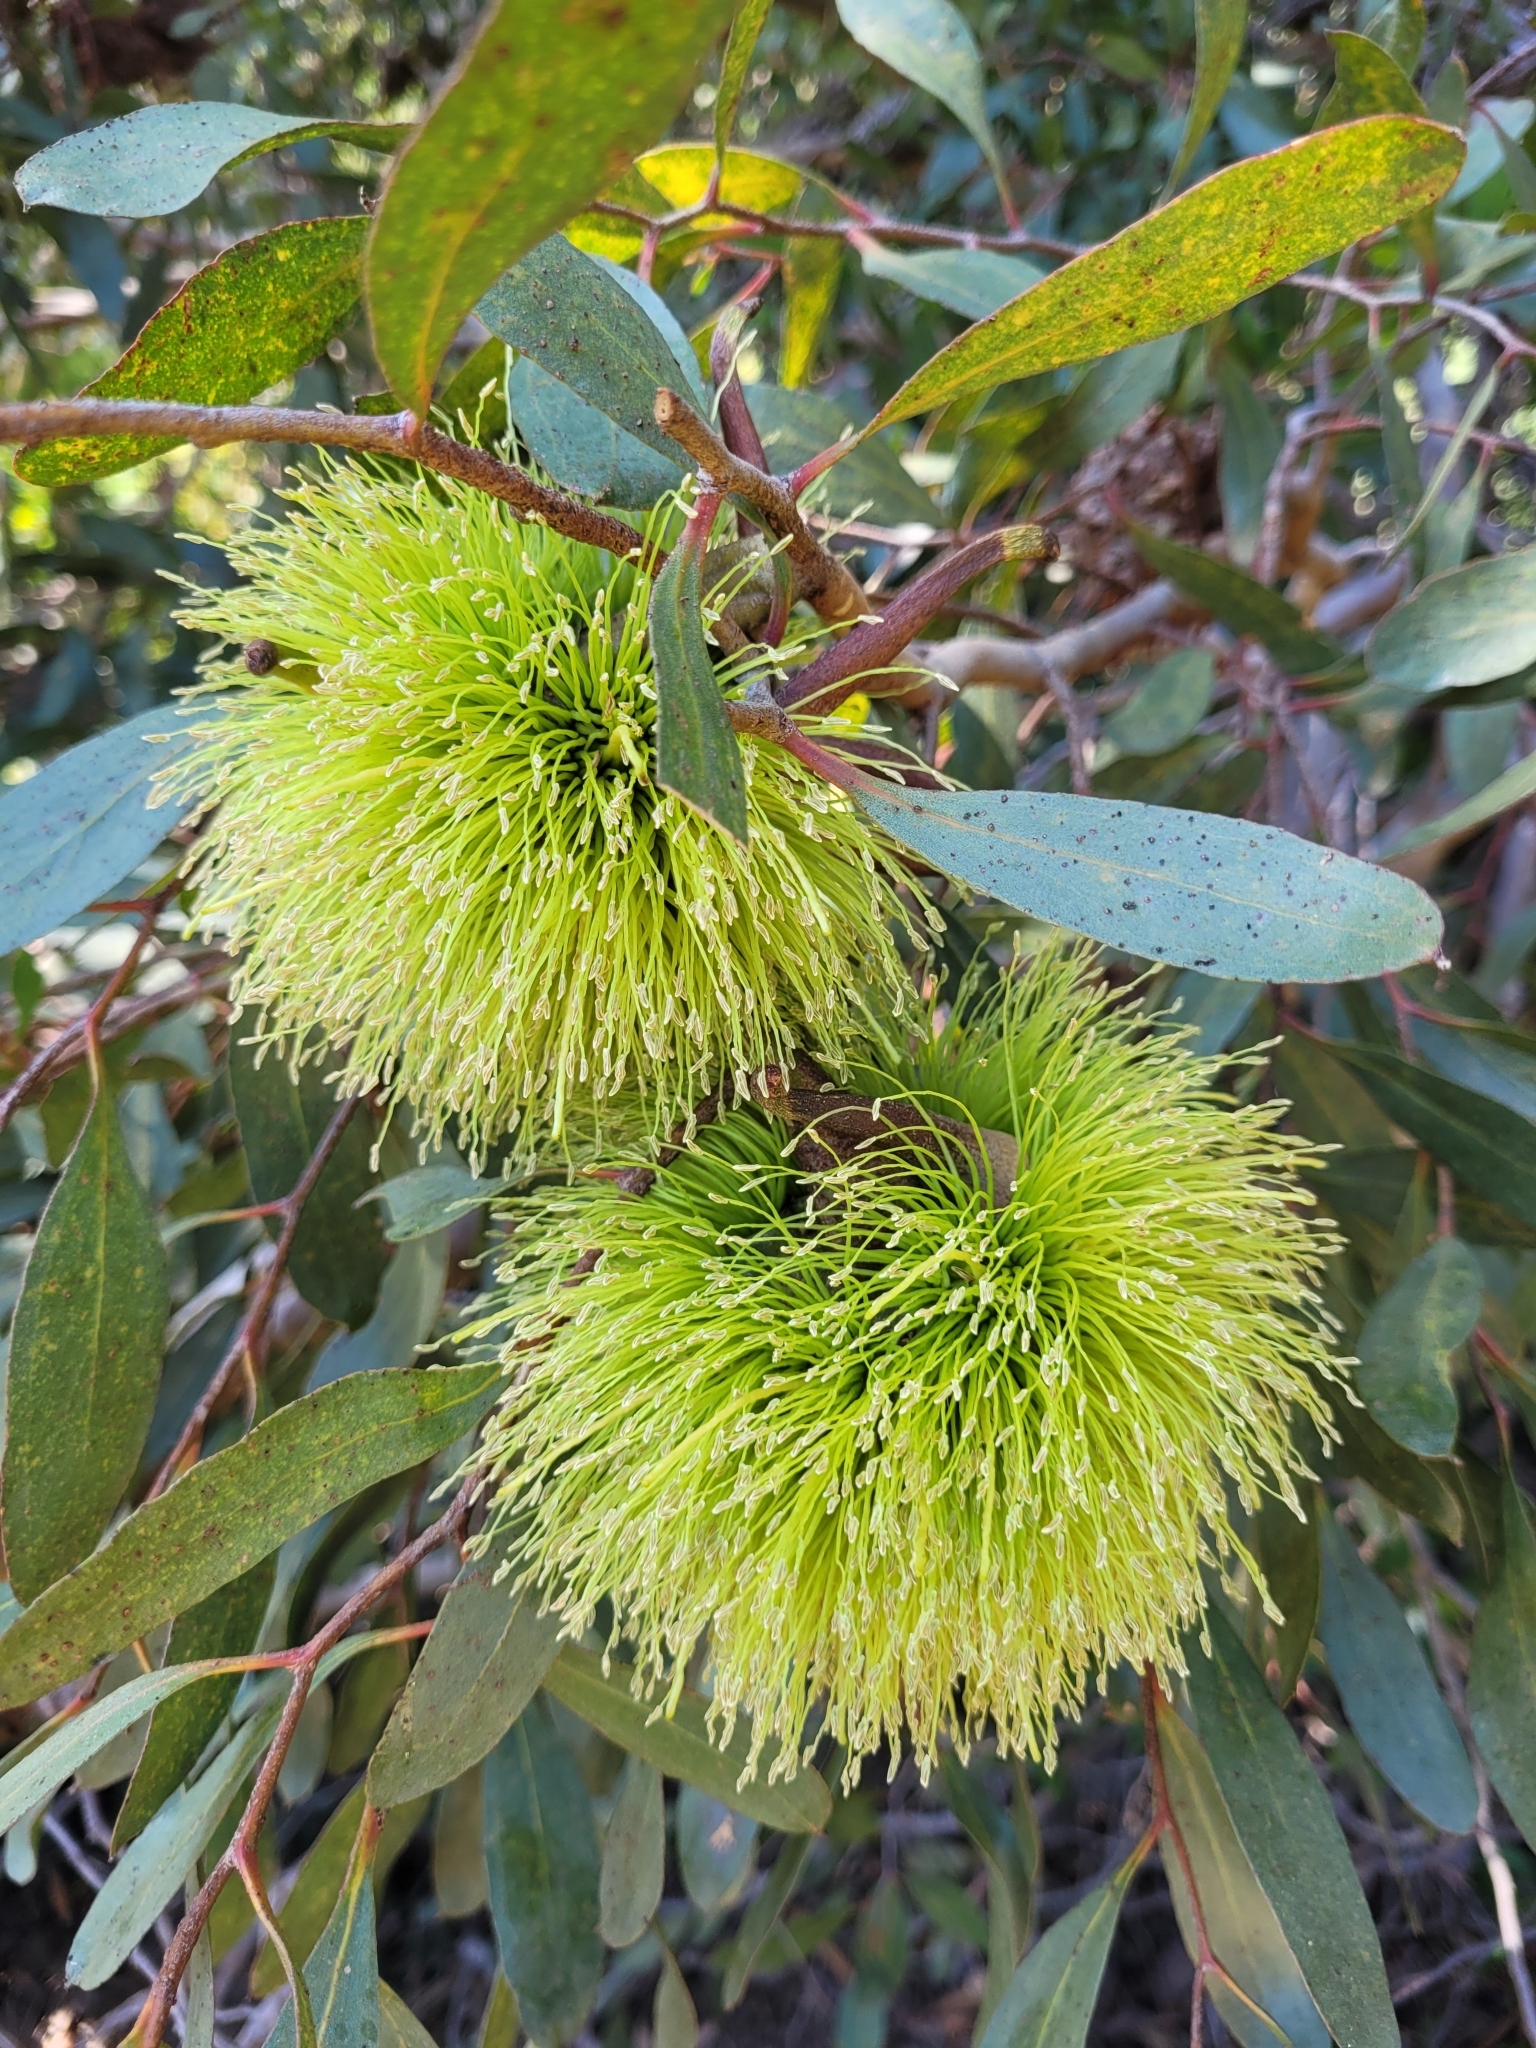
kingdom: Plantae
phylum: Tracheophyta
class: Magnoliopsida
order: Myrtales
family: Myrtaceae
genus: Eucalyptus
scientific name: Eucalyptus conferruminata
